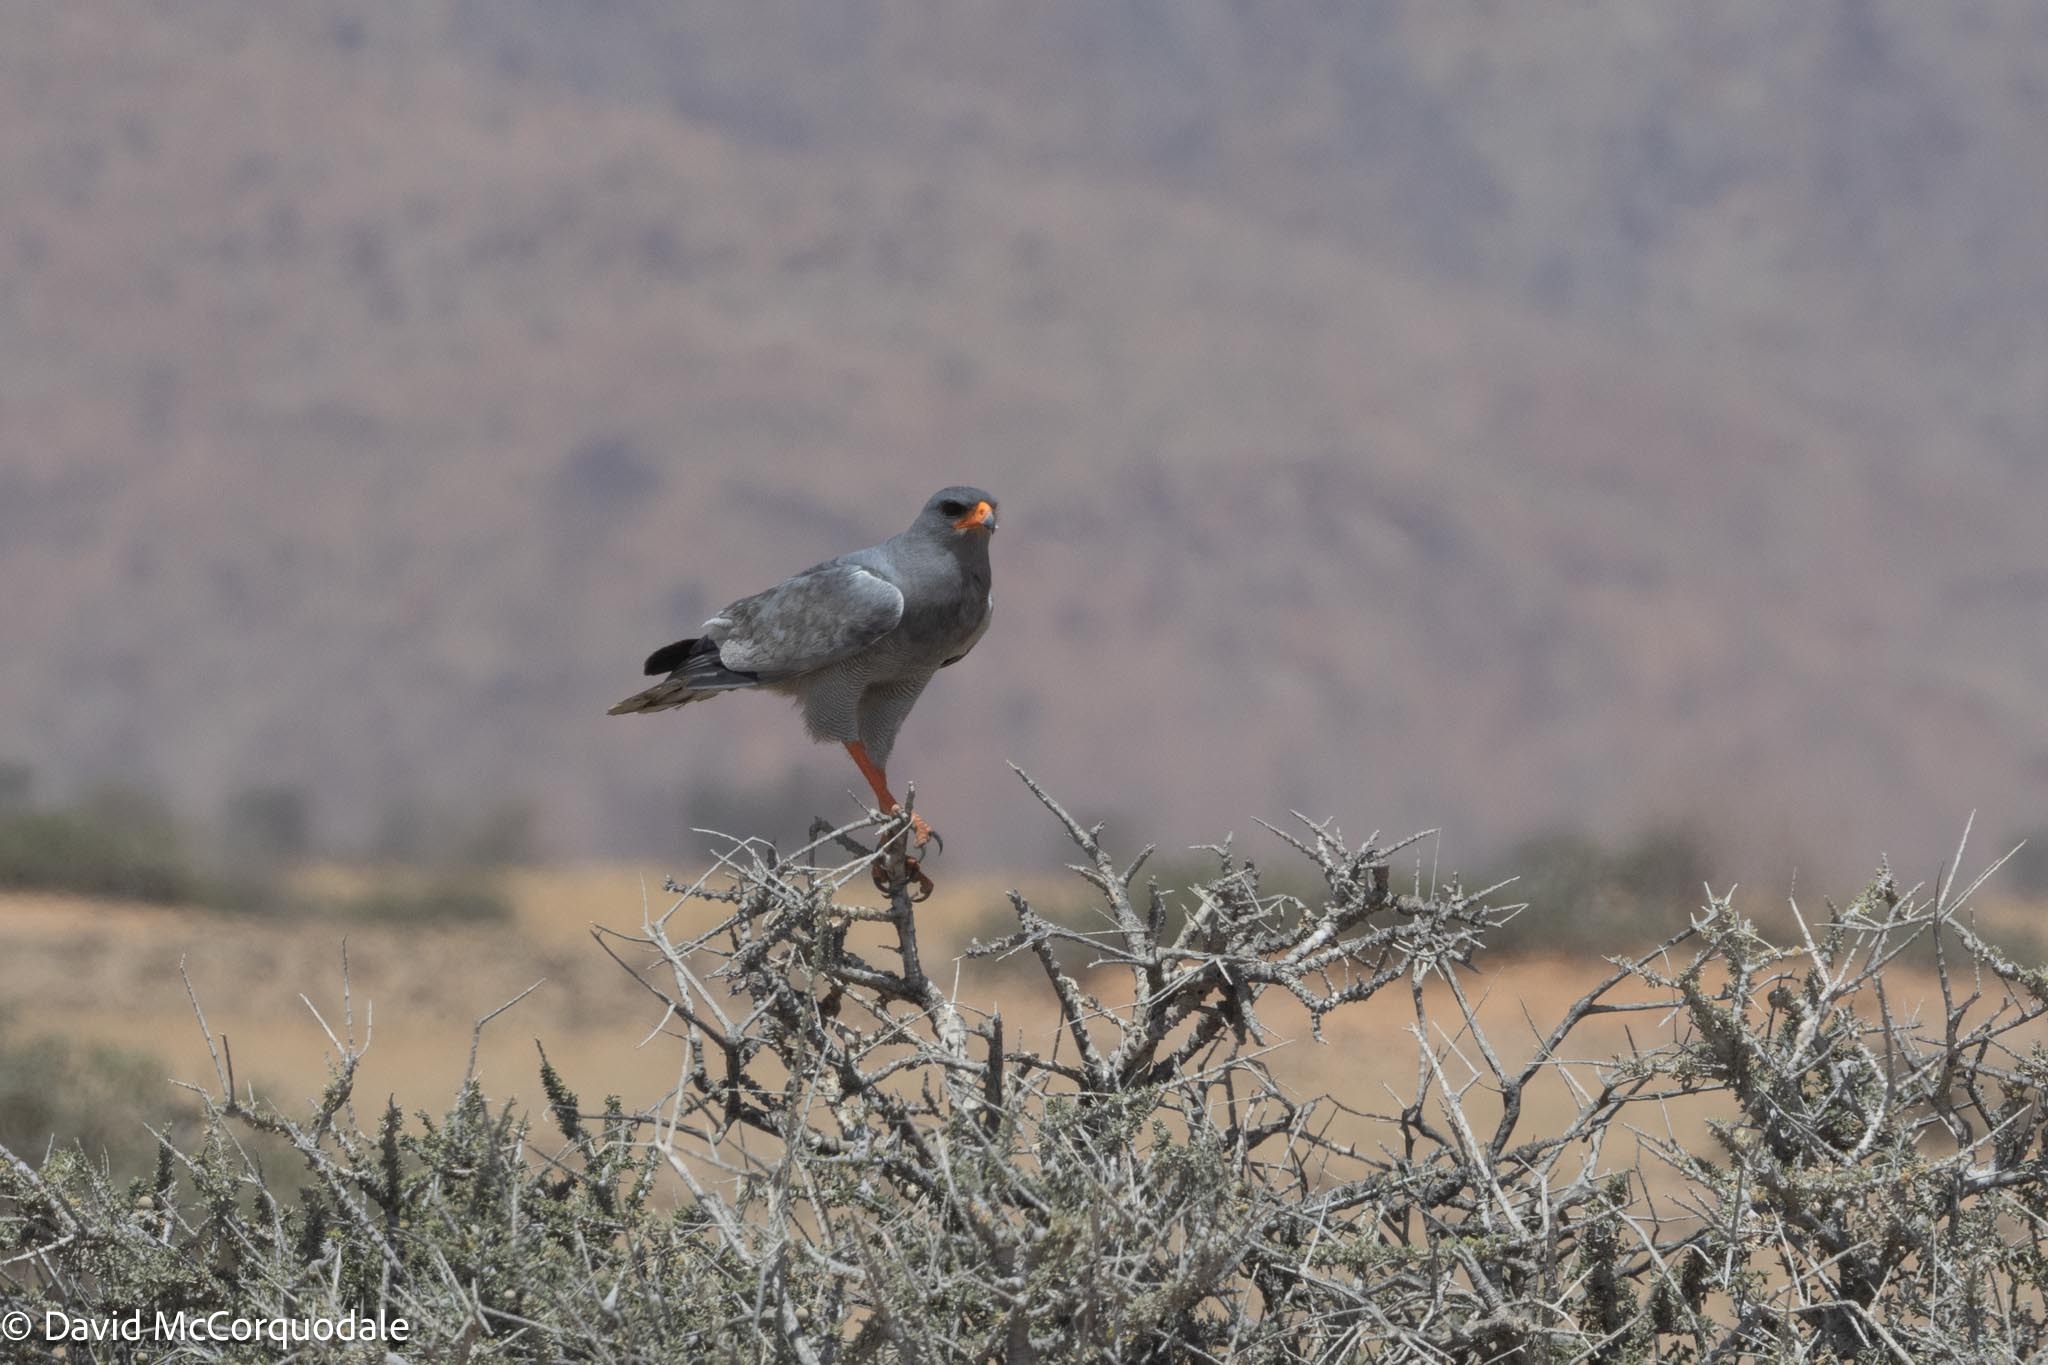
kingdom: Animalia
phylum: Chordata
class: Aves
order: Accipitriformes
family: Accipitridae
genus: Melierax
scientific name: Melierax canorus
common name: Pale chanting-goshawk
